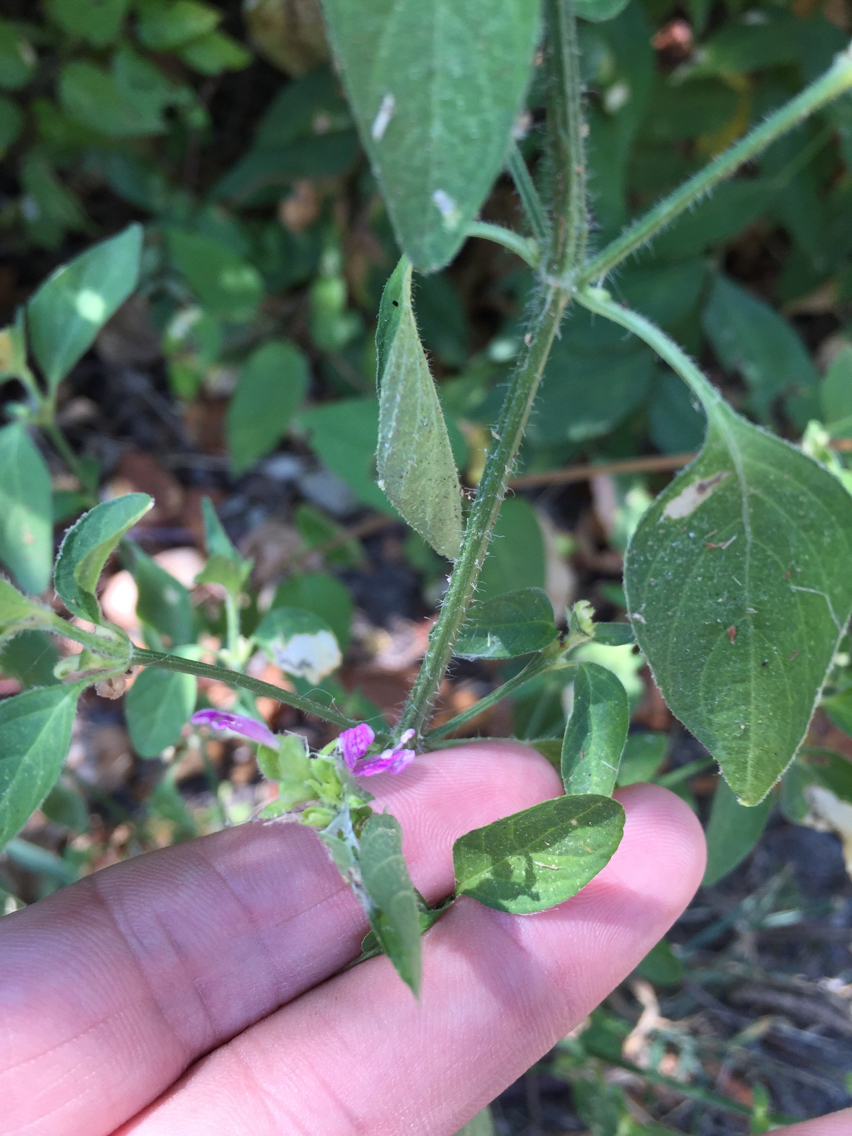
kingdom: Plantae
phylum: Tracheophyta
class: Magnoliopsida
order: Lamiales
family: Acanthaceae
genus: Dicliptera
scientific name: Dicliptera brachiata
